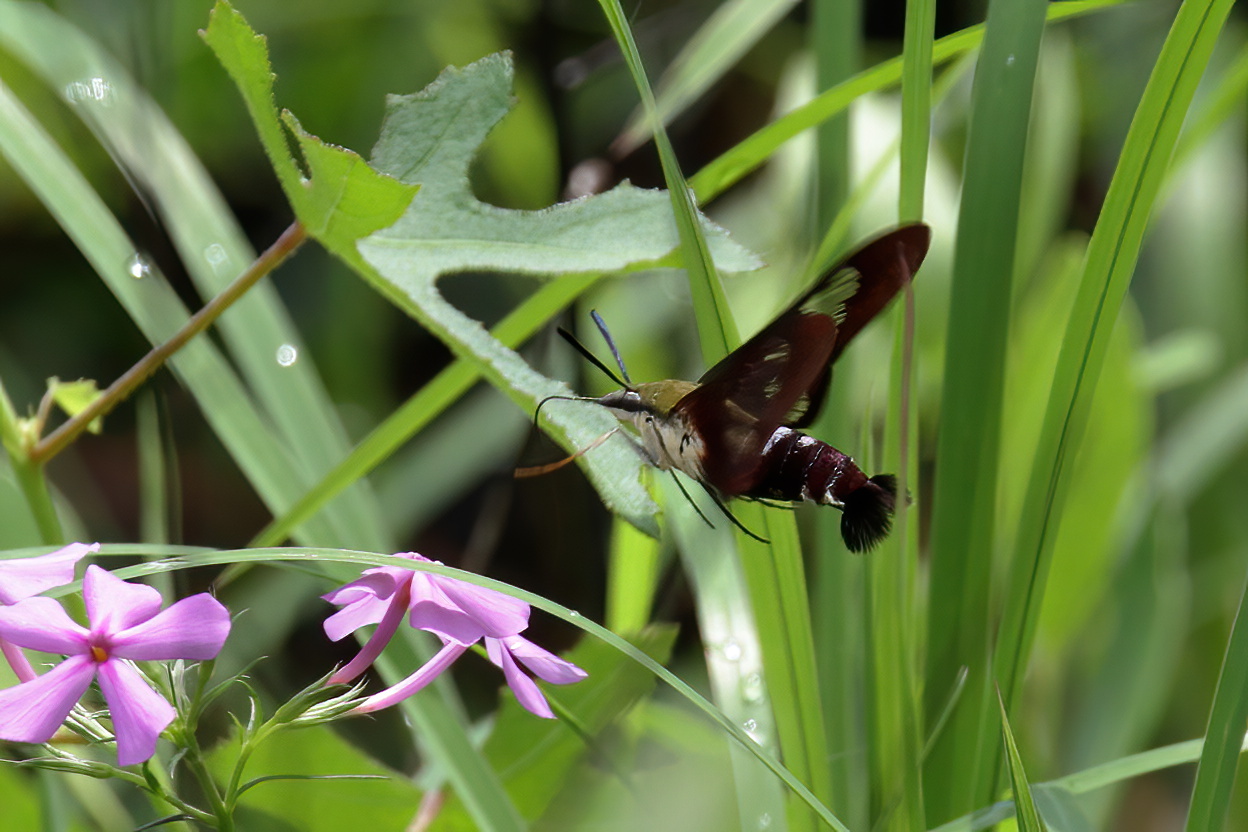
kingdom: Animalia
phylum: Arthropoda
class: Insecta
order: Lepidoptera
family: Sphingidae
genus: Hemaris
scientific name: Hemaris thysbe
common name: Common clear-wing
